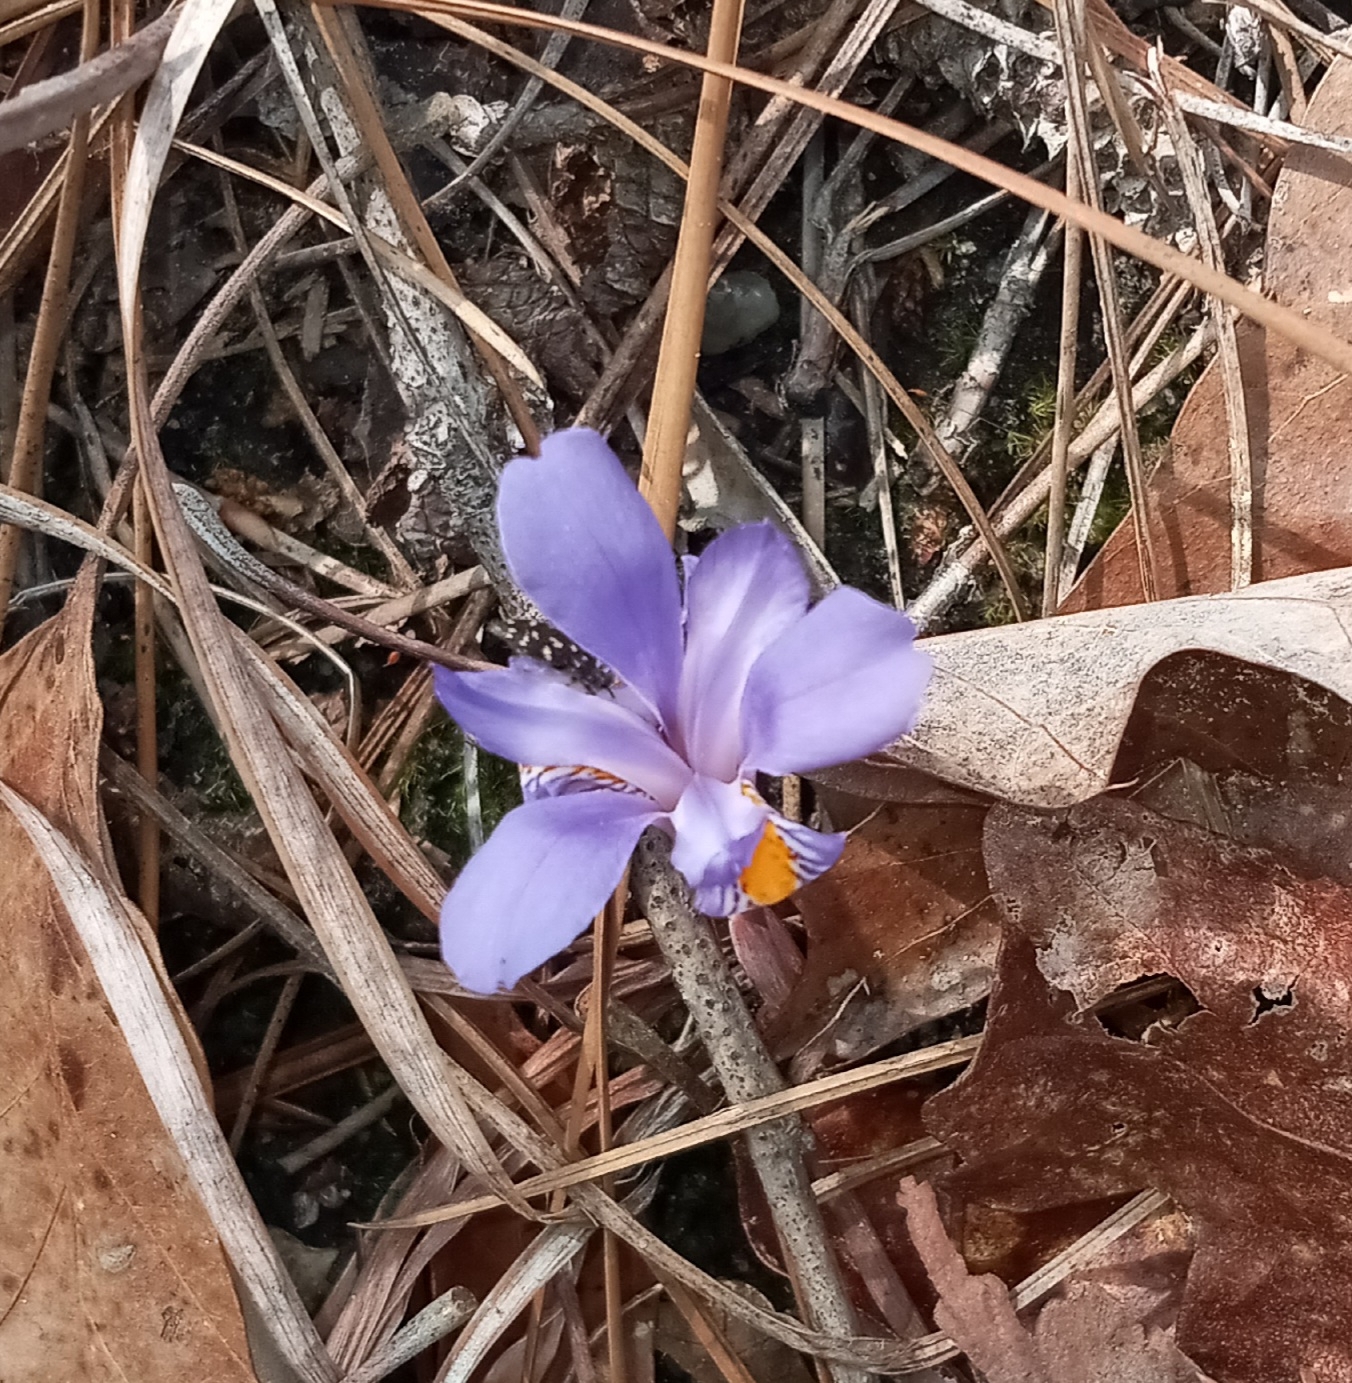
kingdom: Plantae
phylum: Tracheophyta
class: Liliopsida
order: Asparagales
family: Iridaceae
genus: Iris
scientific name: Iris verna
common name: Dwarf iris
